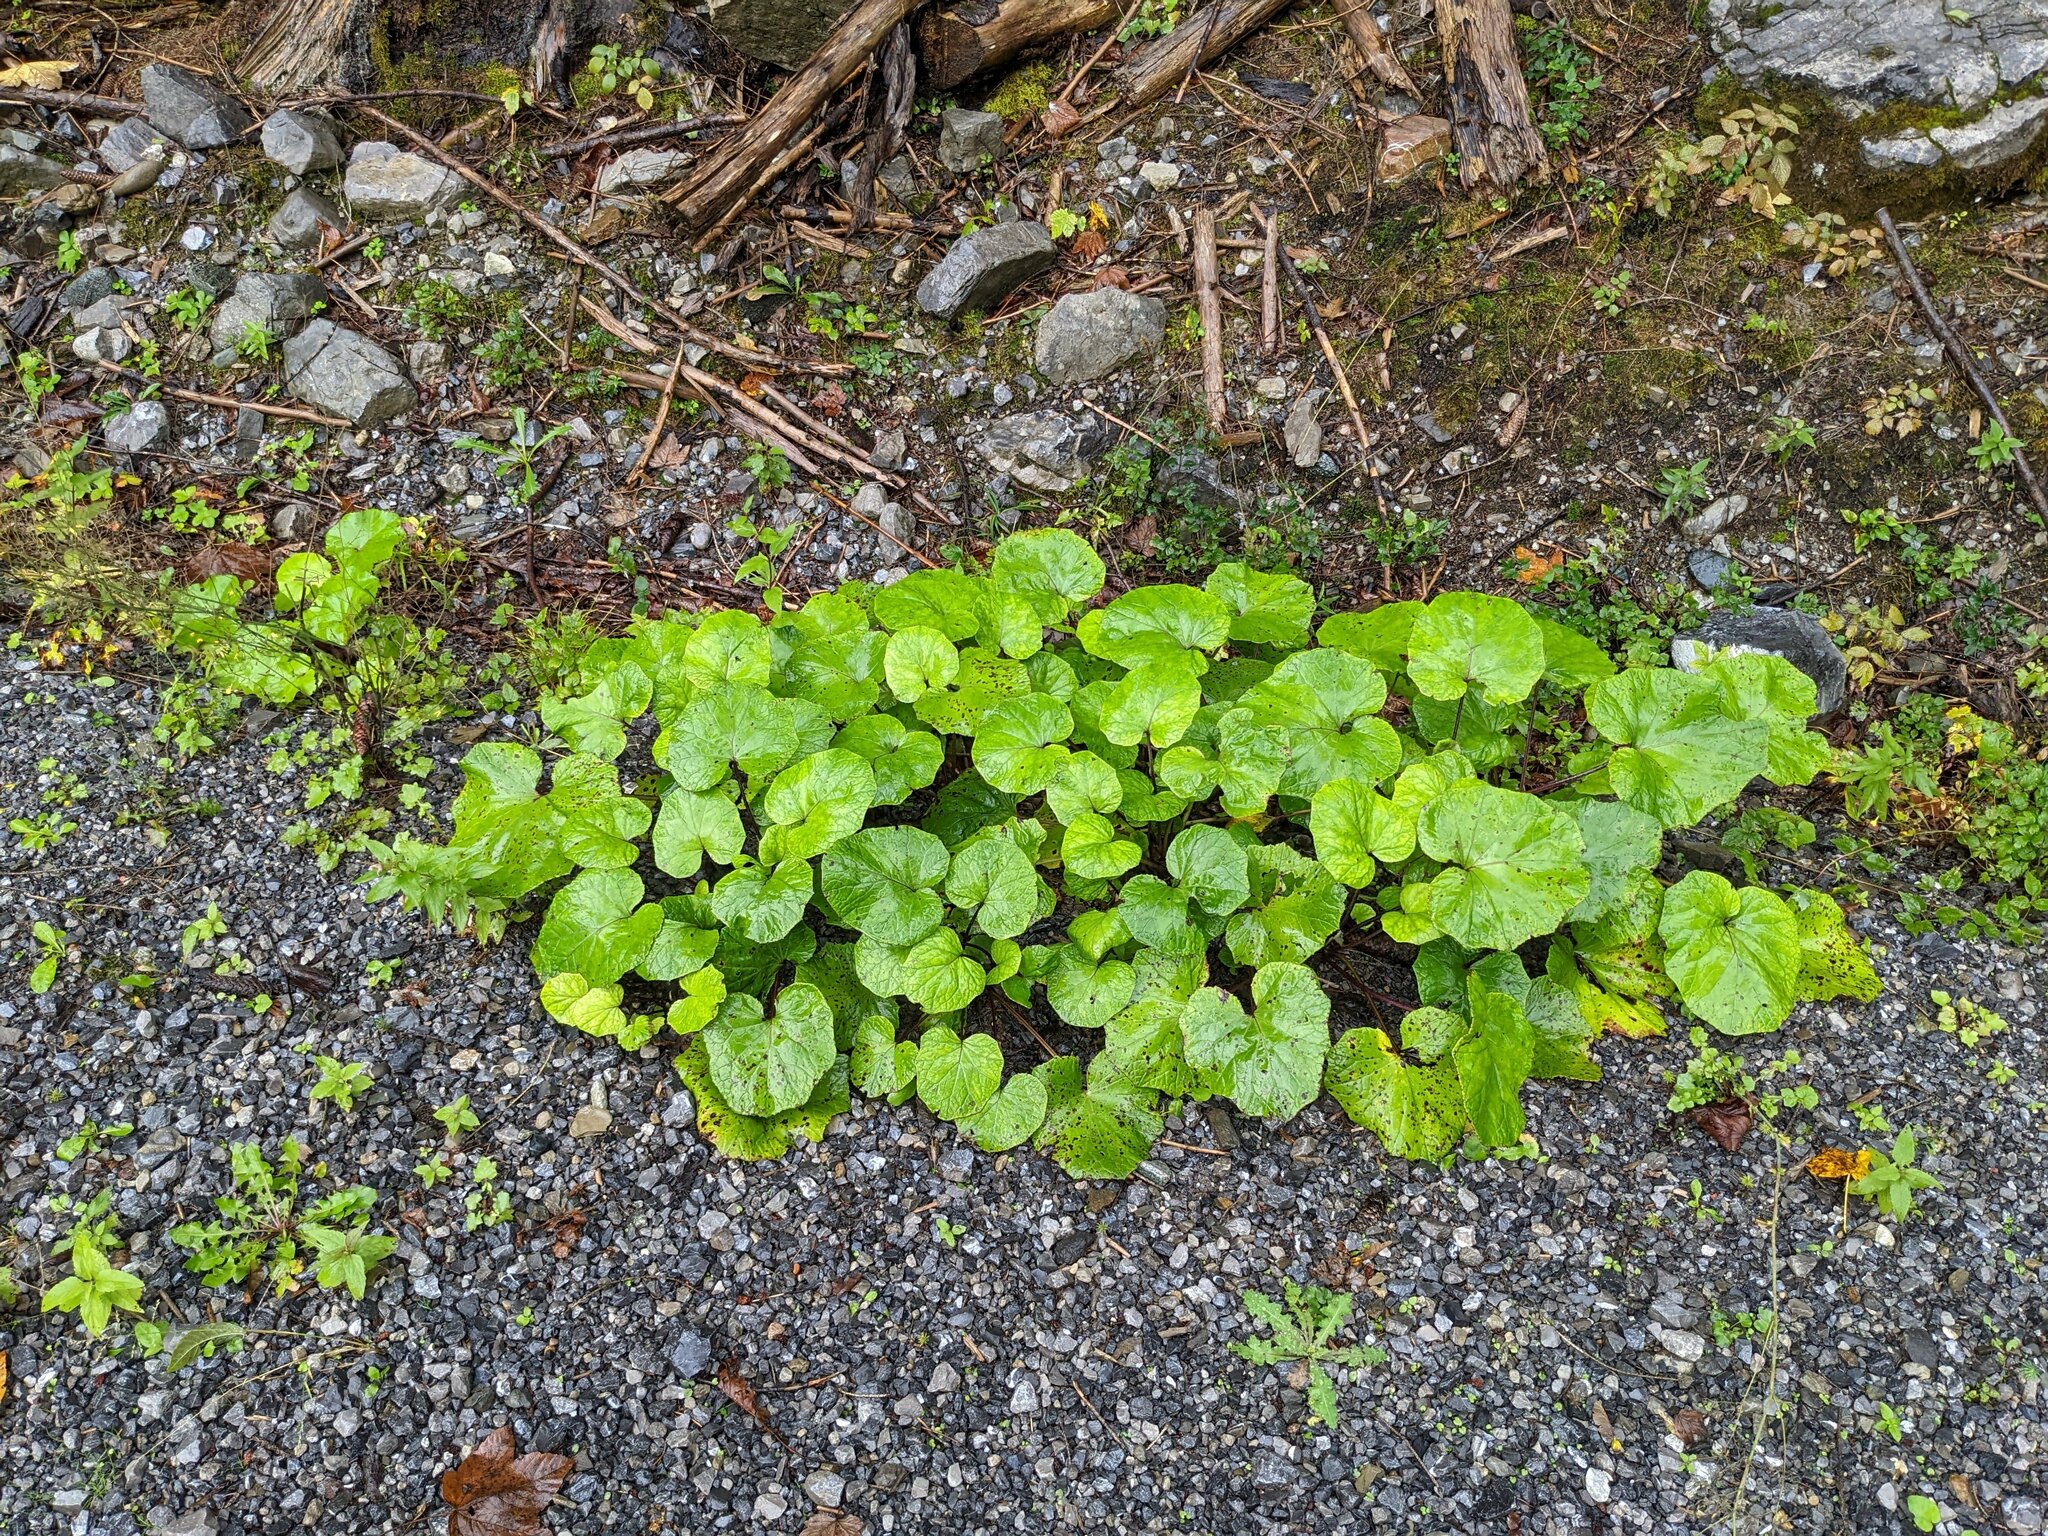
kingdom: Plantae
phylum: Tracheophyta
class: Magnoliopsida
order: Asterales
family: Asteraceae
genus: Tussilago
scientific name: Tussilago farfara
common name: Coltsfoot
